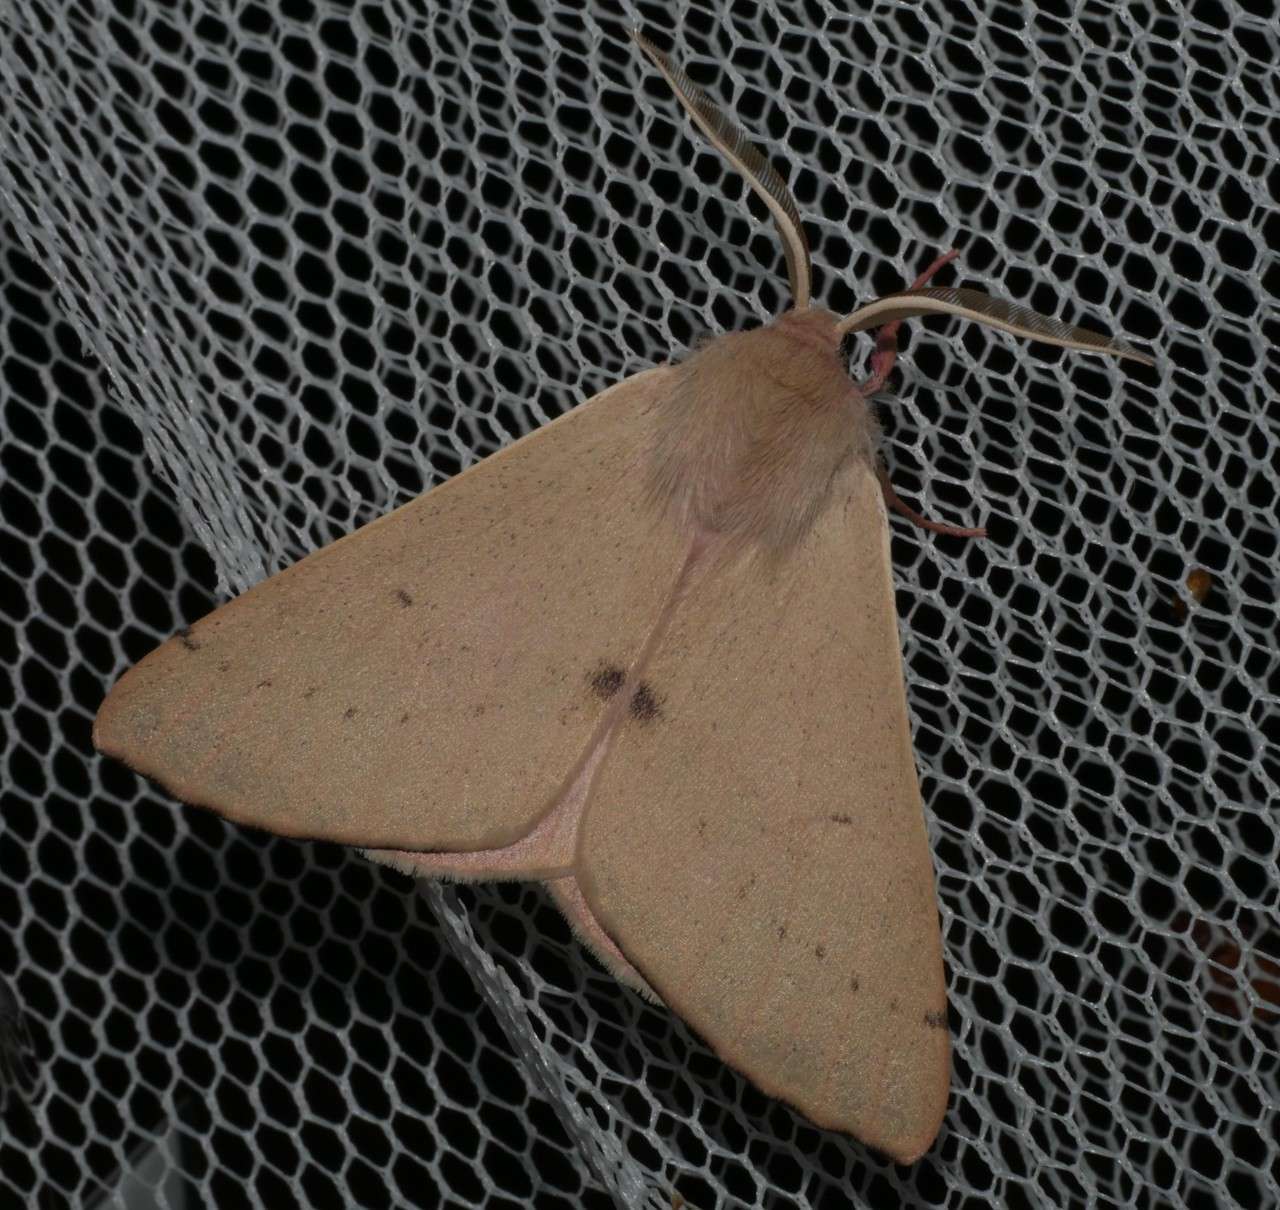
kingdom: Animalia
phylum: Arthropoda
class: Insecta
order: Lepidoptera
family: Geometridae
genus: Arhodia
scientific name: Arhodia lasiocamparia
